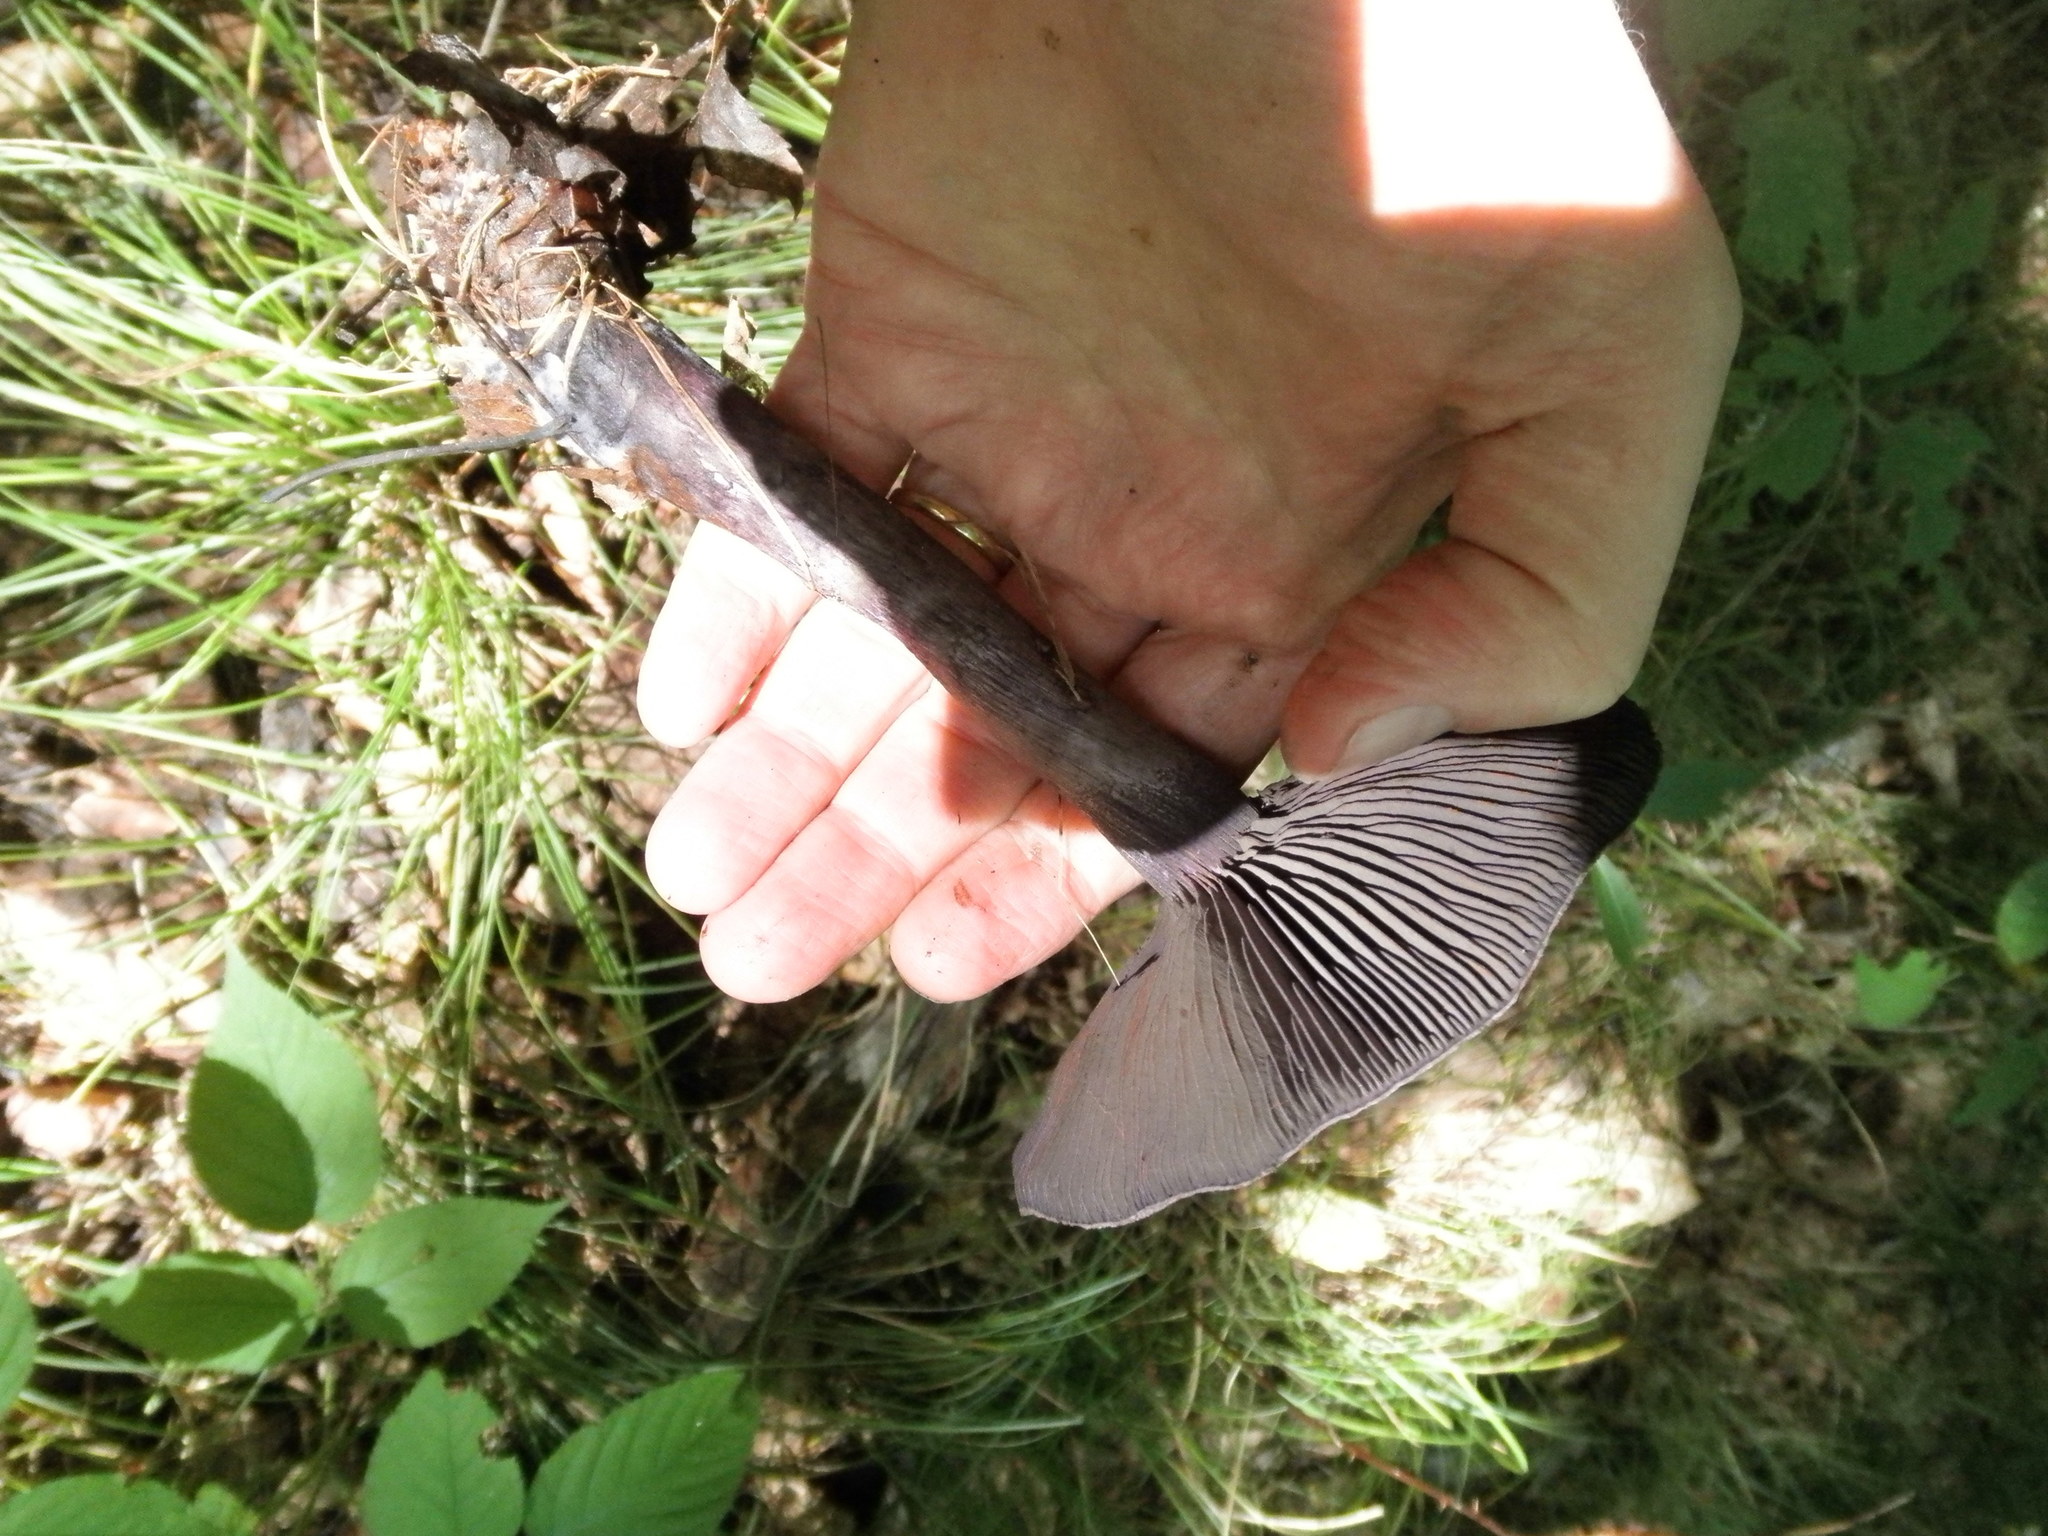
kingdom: Fungi
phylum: Basidiomycota
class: Agaricomycetes
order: Agaricales
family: Cortinariaceae
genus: Cortinarius
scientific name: Cortinarius violaceus
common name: Violet webcap
